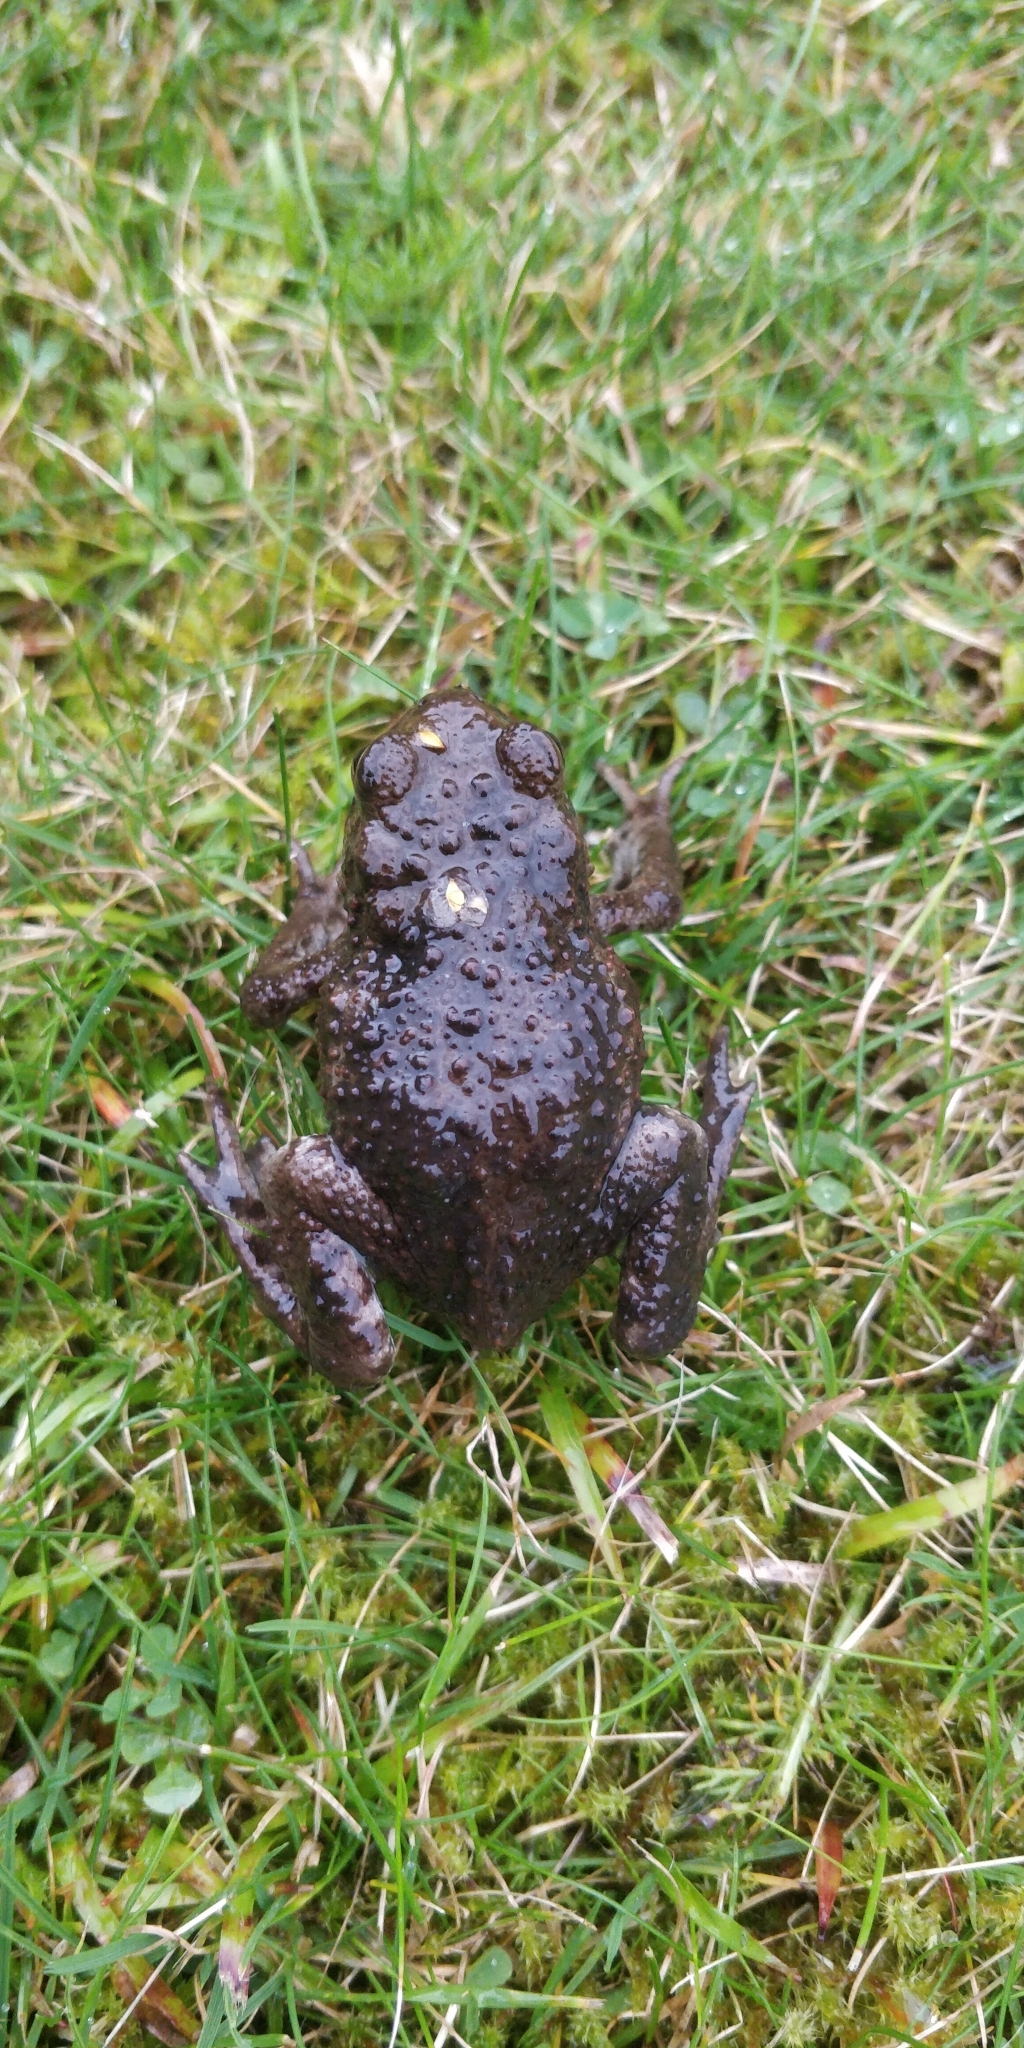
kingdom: Animalia
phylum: Chordata
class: Amphibia
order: Anura
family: Bufonidae
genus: Bufo
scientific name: Bufo bufo
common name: Common toad
